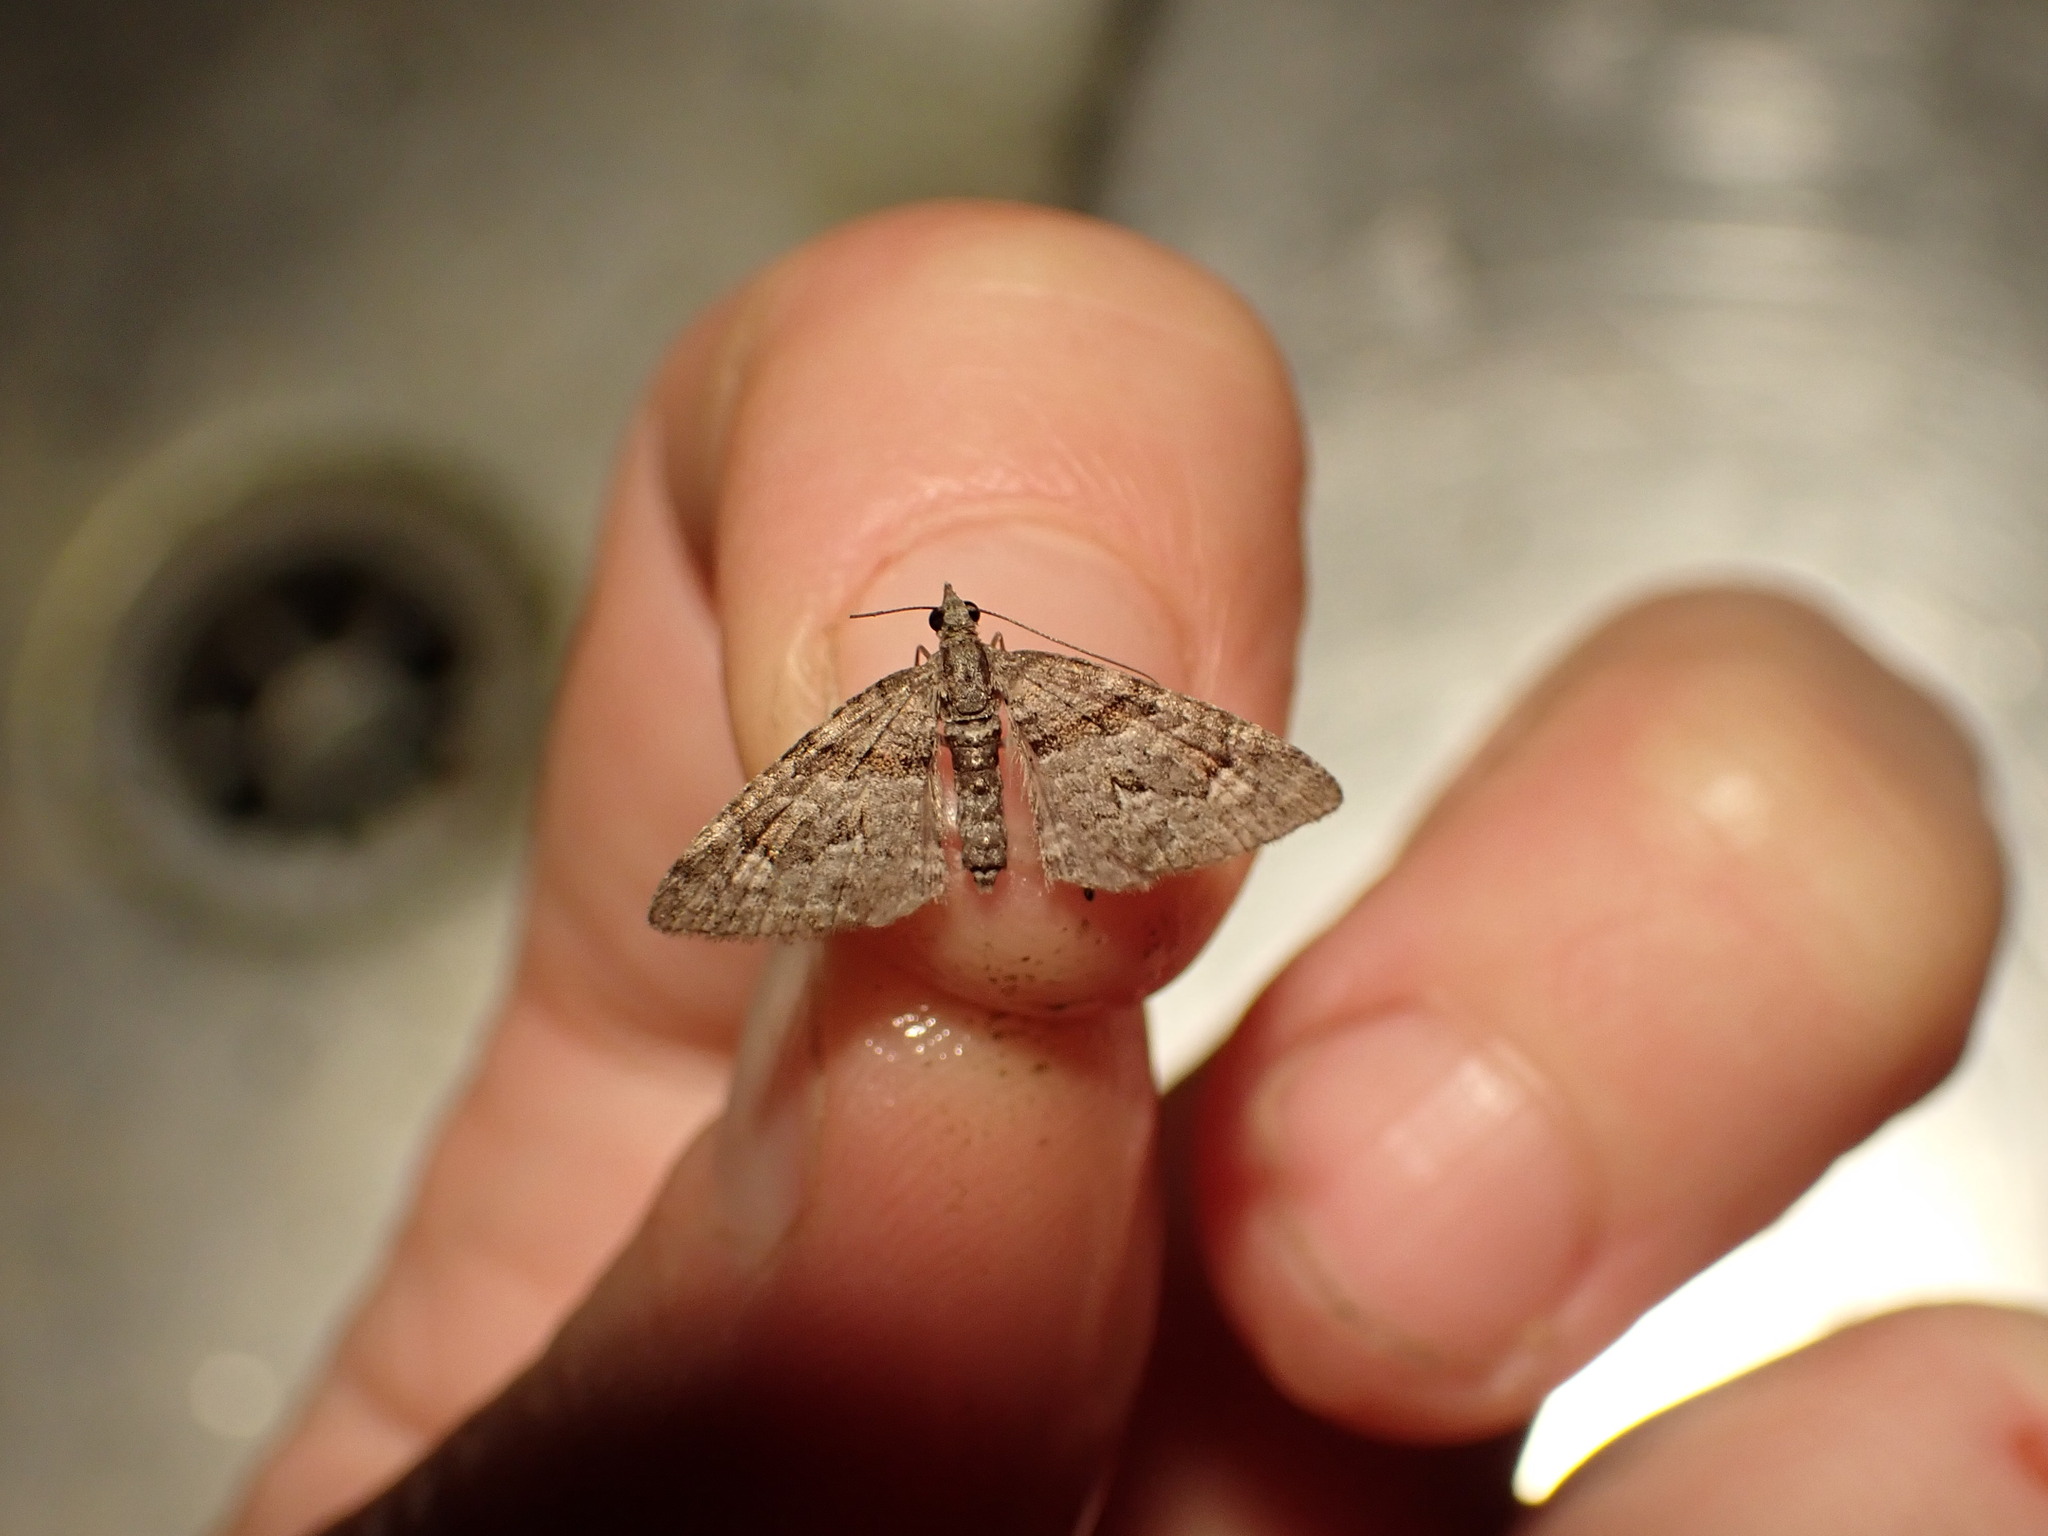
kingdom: Animalia
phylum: Arthropoda
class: Insecta
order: Lepidoptera
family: Geometridae
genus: Phrissogonus
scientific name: Phrissogonus laticostata
